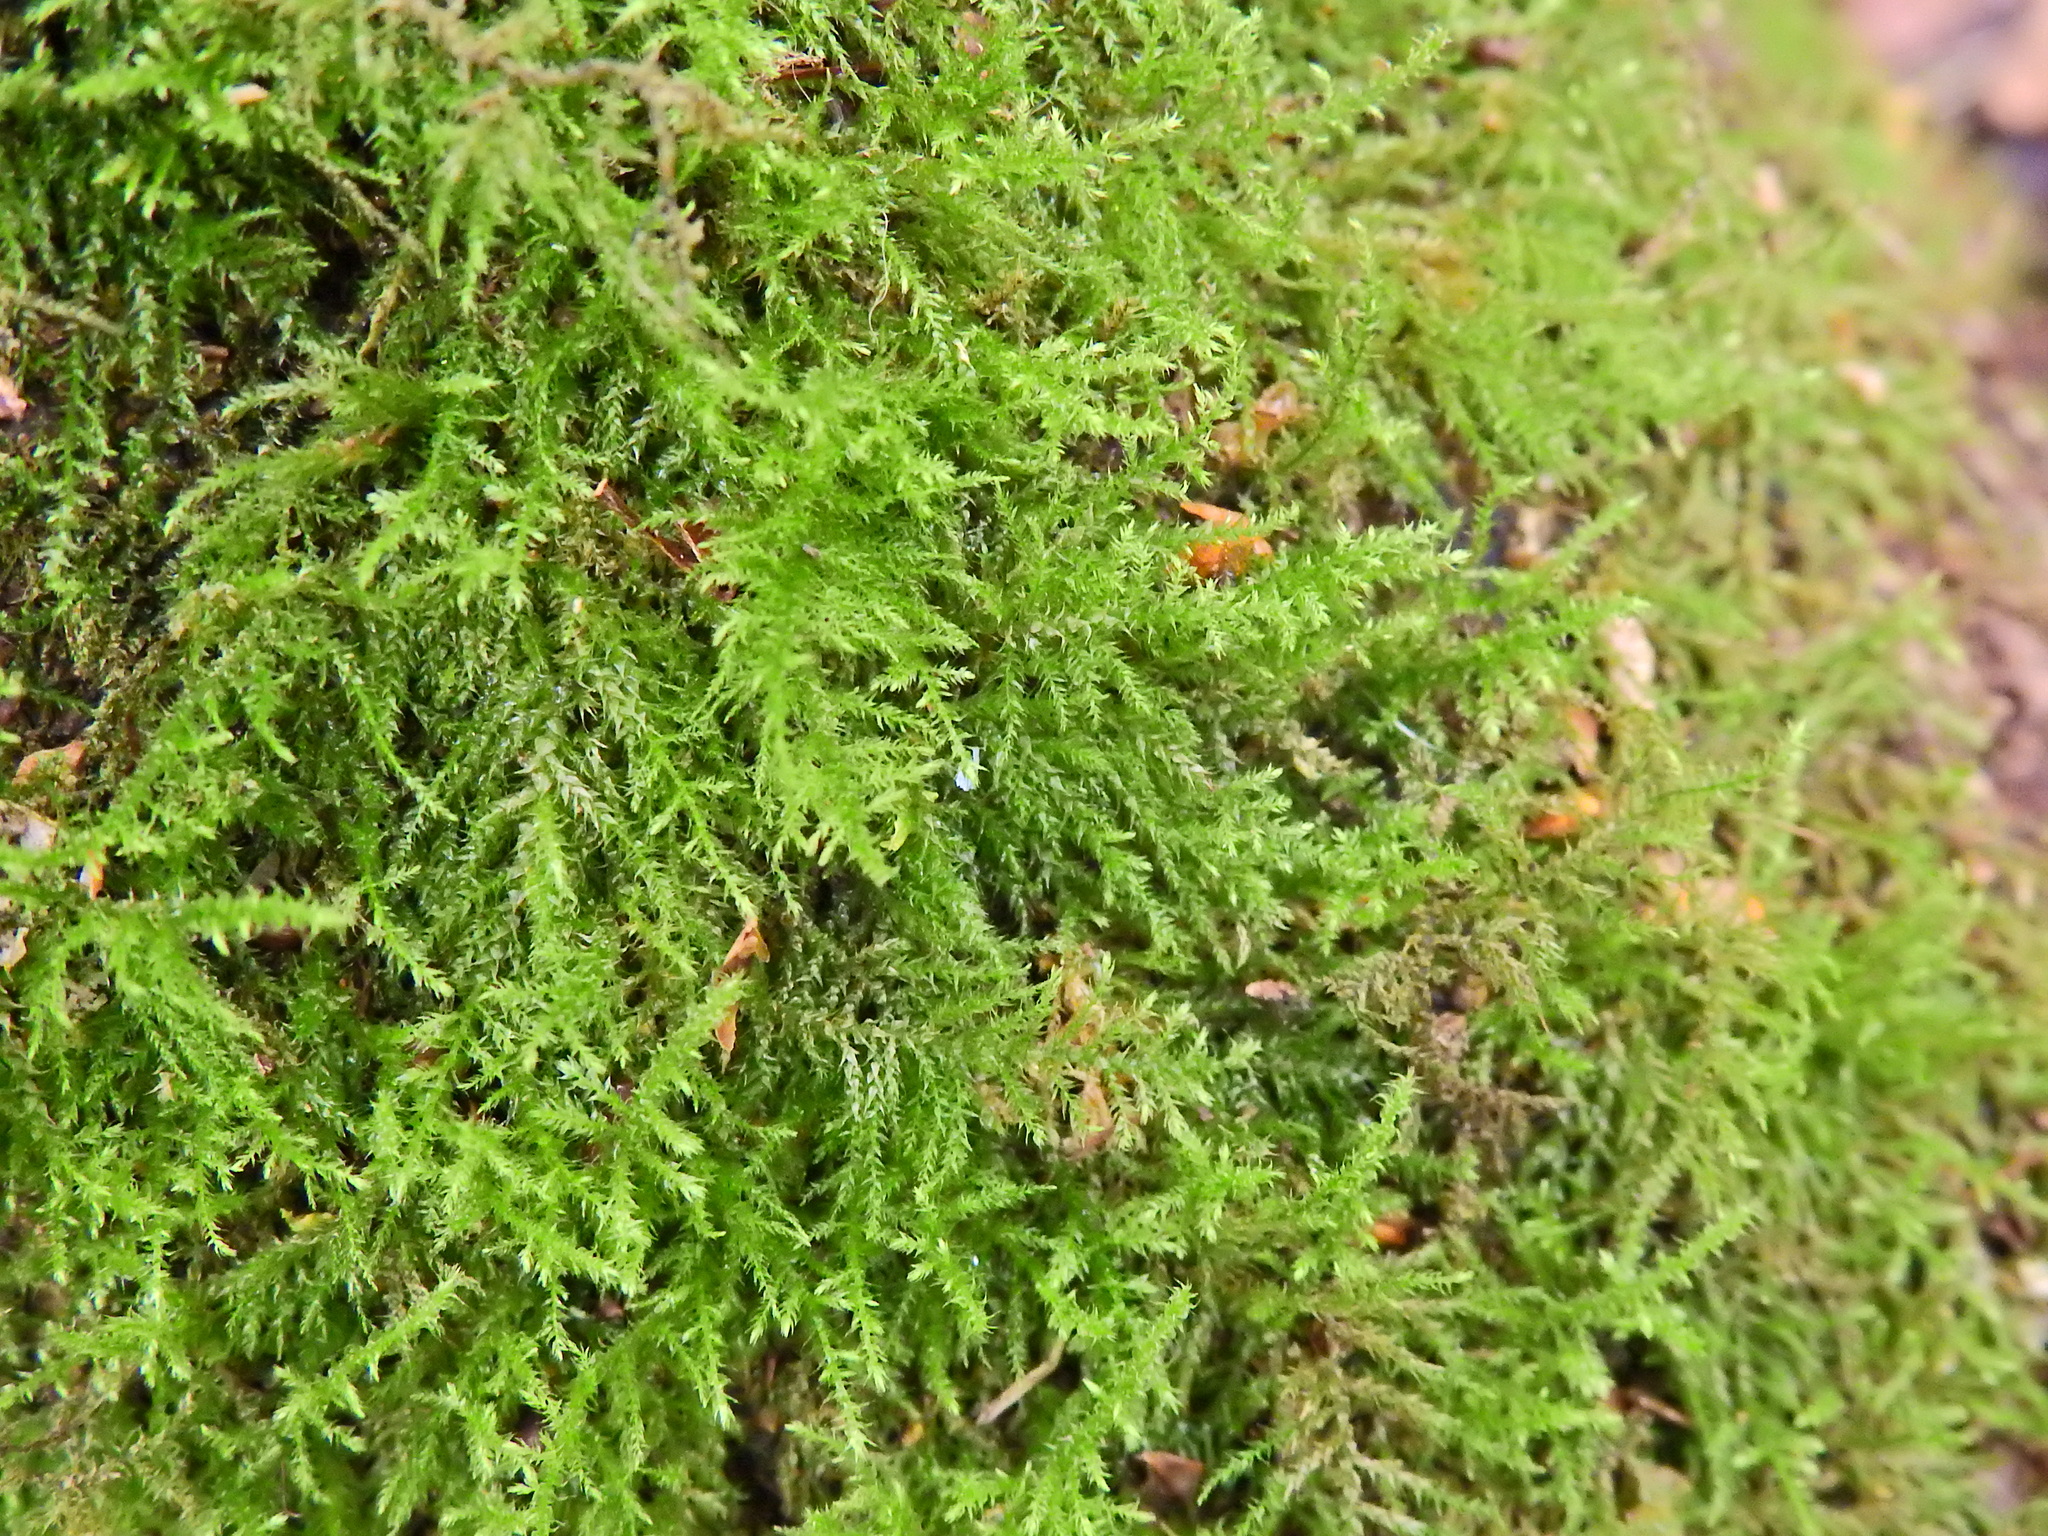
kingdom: Plantae
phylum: Bryophyta
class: Bryopsida
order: Hypnales
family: Brachytheciaceae
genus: Kindbergia
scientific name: Kindbergia praelonga
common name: Slender beaked moss
